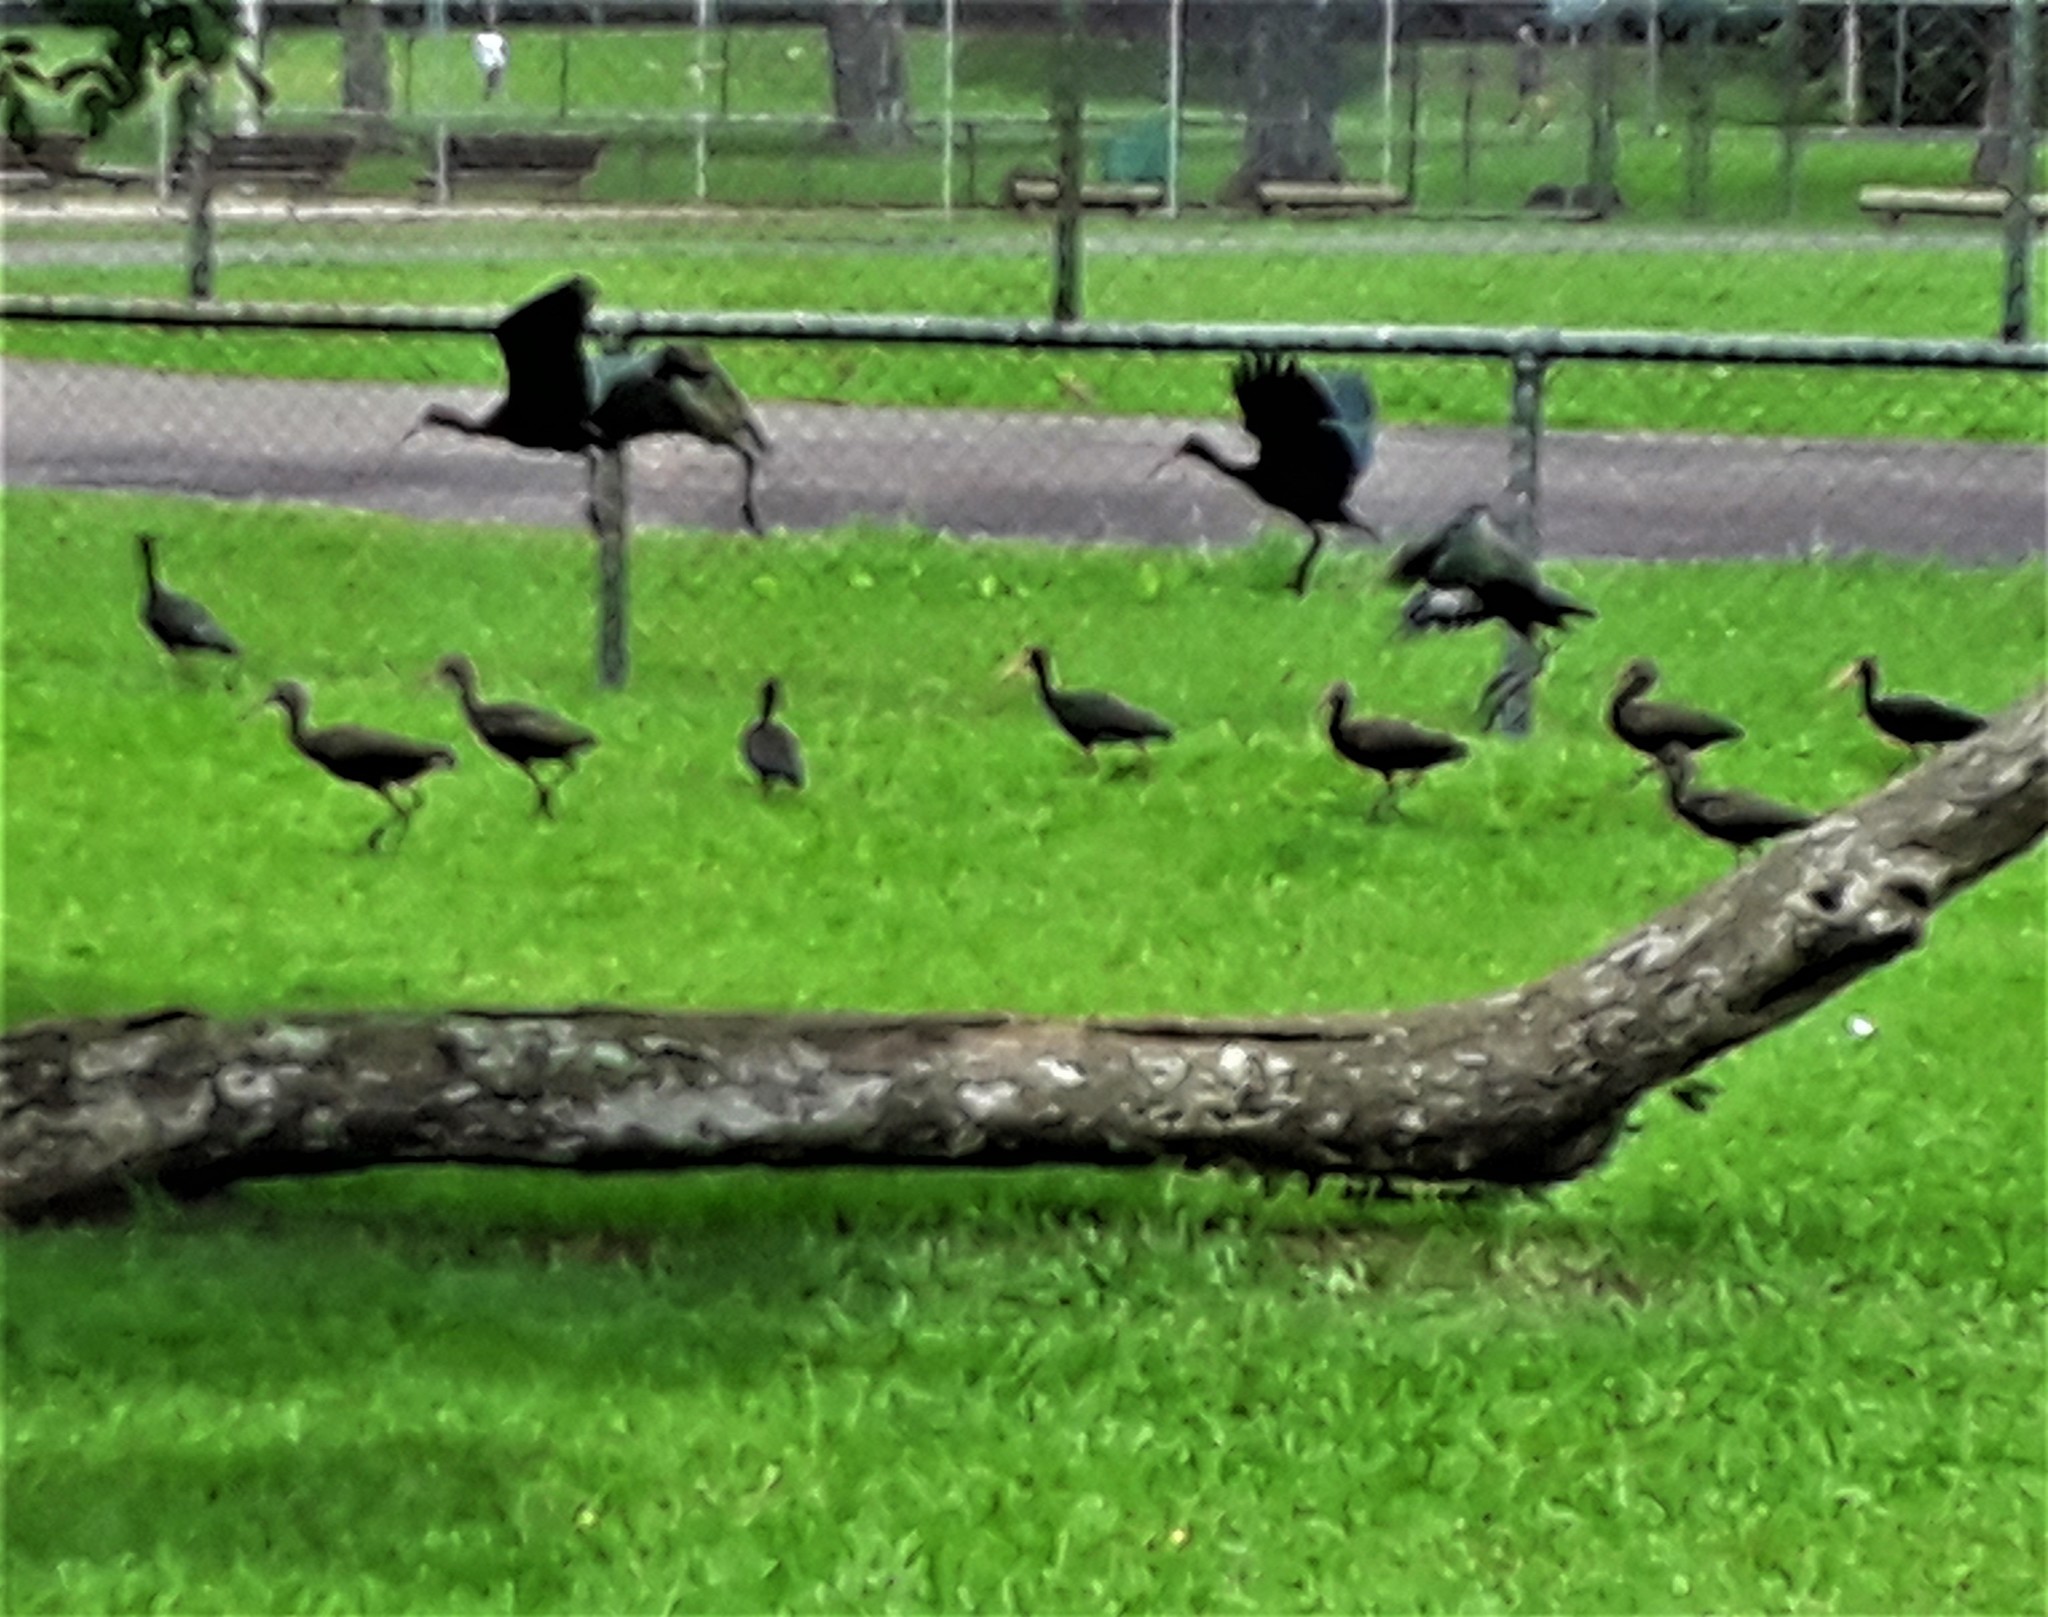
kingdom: Animalia
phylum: Chordata
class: Aves
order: Pelecaniformes
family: Threskiornithidae
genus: Phimosus
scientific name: Phimosus infuscatus
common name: Bare-faced ibis
